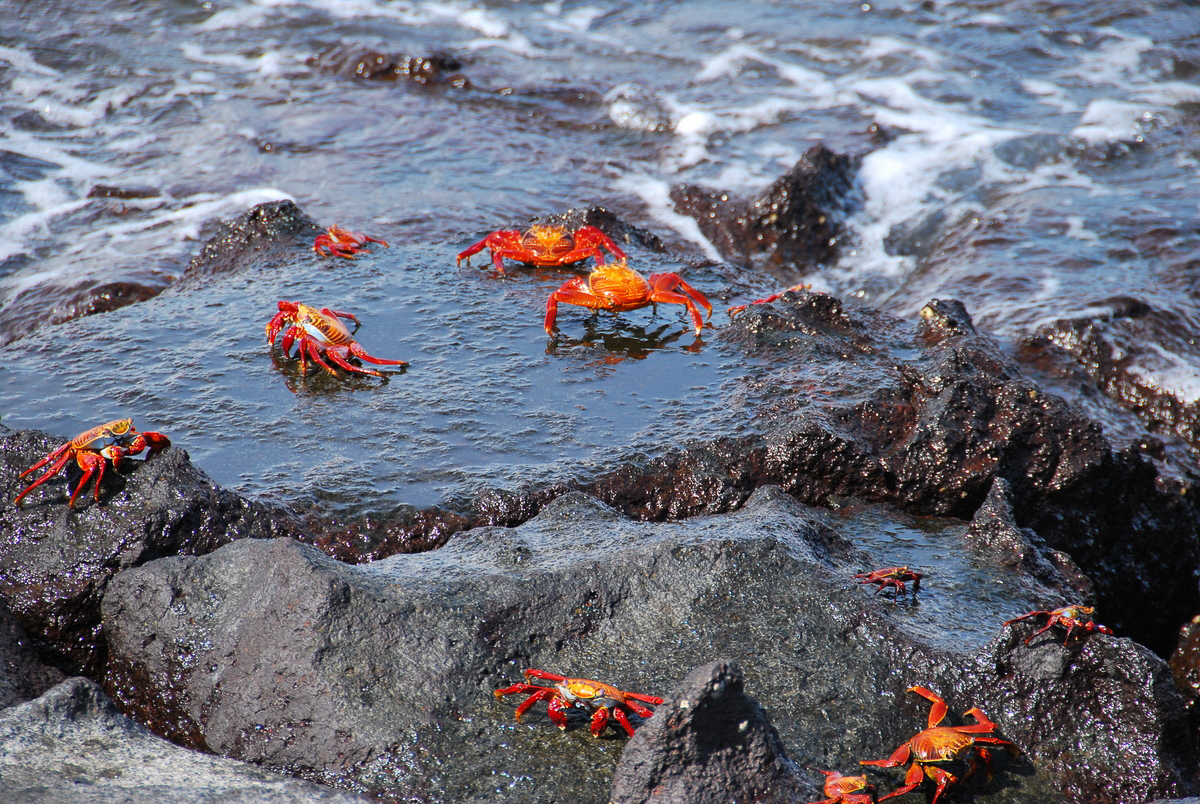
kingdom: Animalia
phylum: Arthropoda
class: Malacostraca
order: Decapoda
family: Grapsidae
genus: Grapsus
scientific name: Grapsus grapsus
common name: Sally lightfoot
